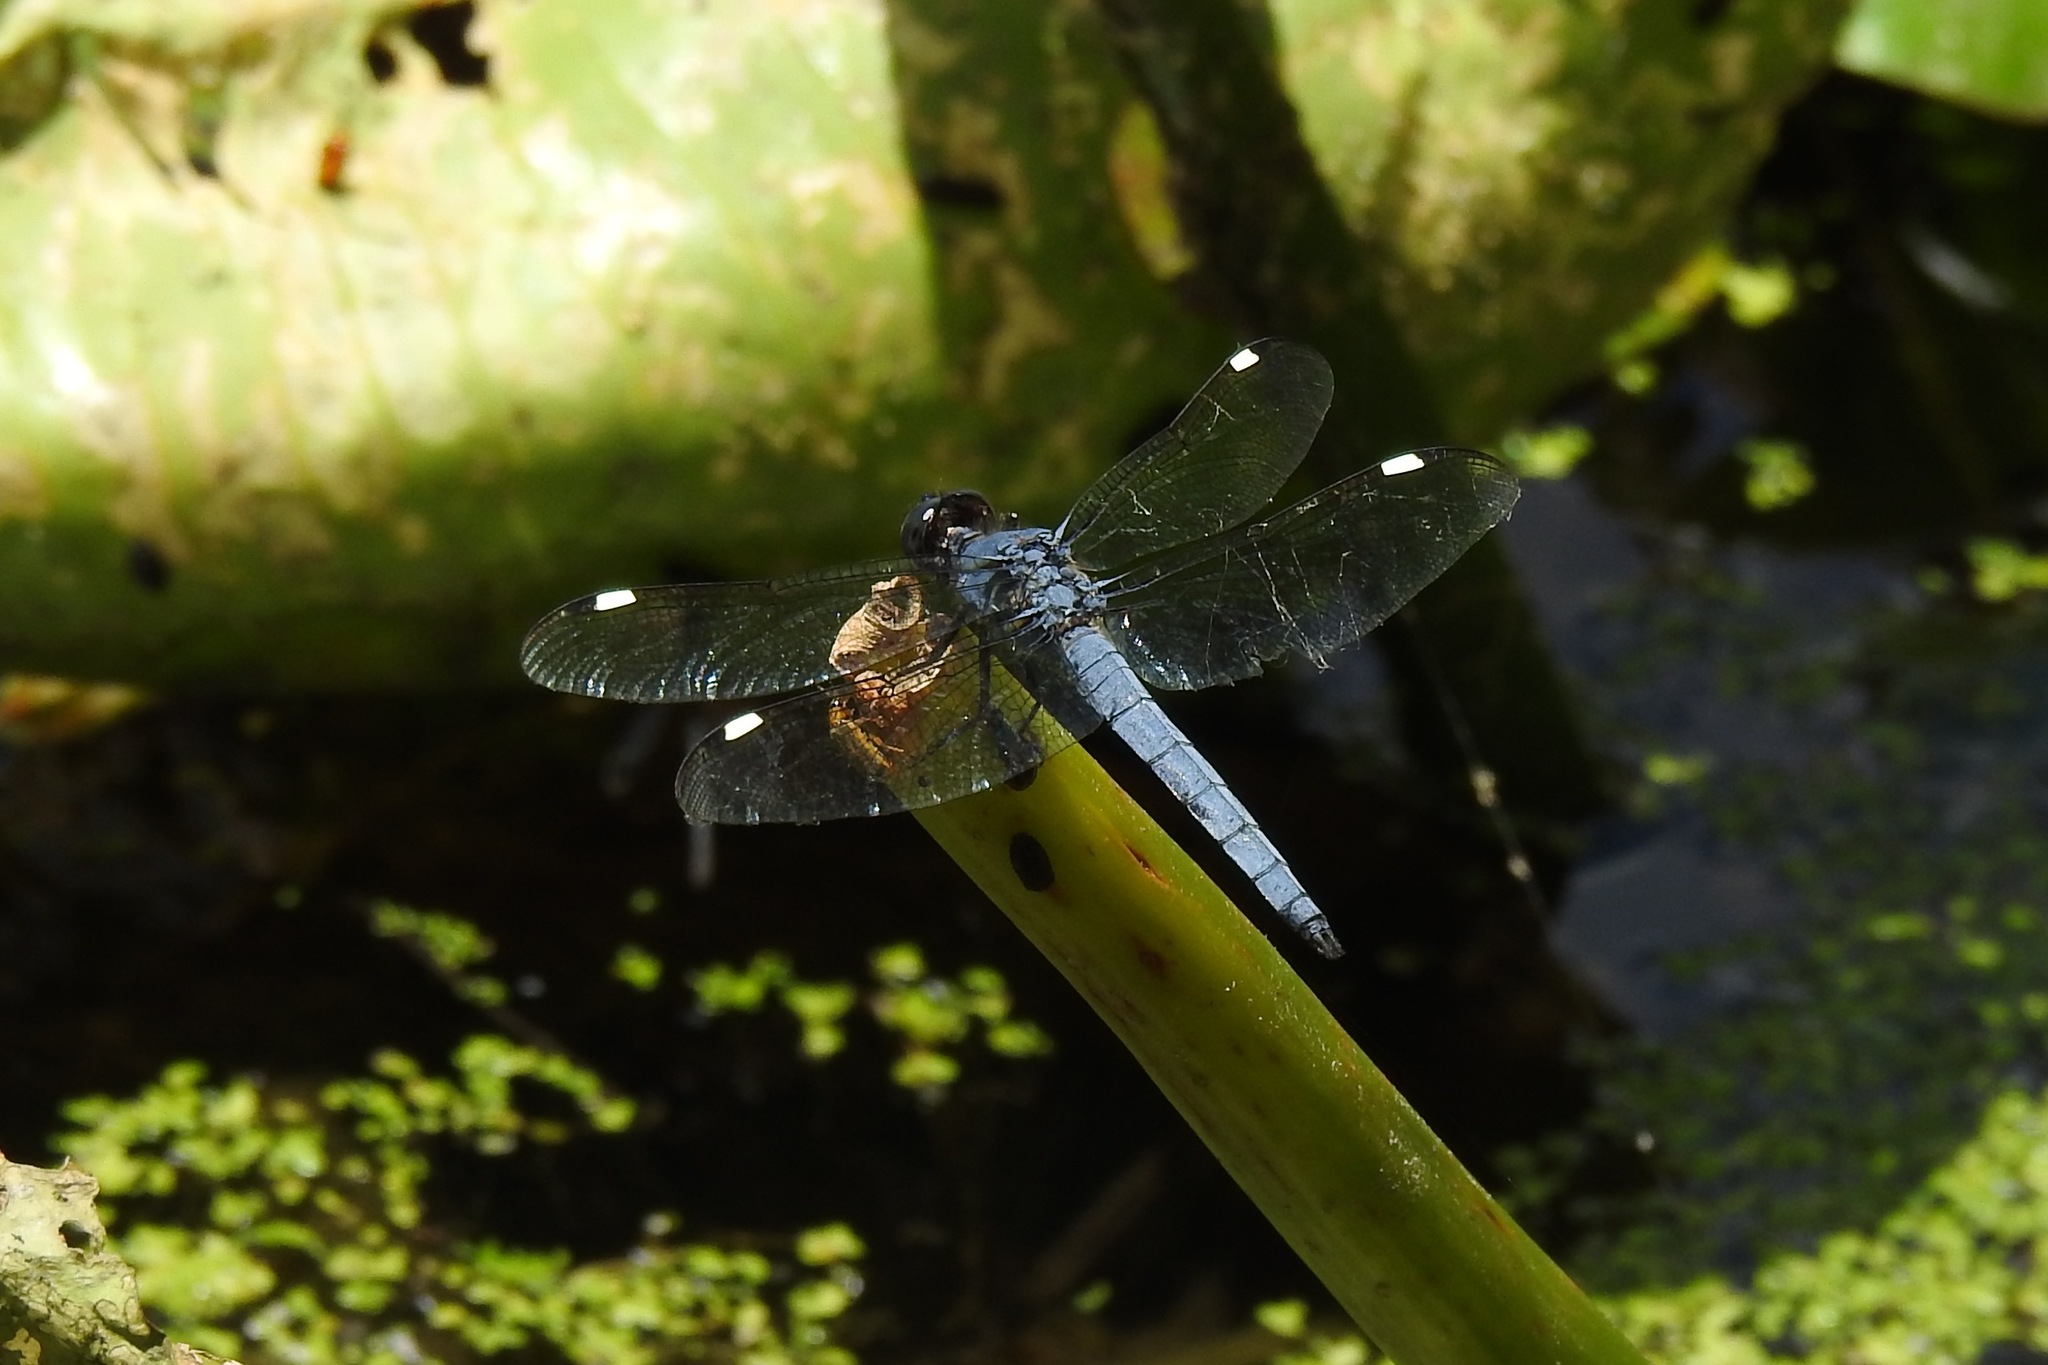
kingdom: Animalia
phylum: Arthropoda
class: Insecta
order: Odonata
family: Libellulidae
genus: Libellula
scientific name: Libellula cyanea
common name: Spangled skimmer
